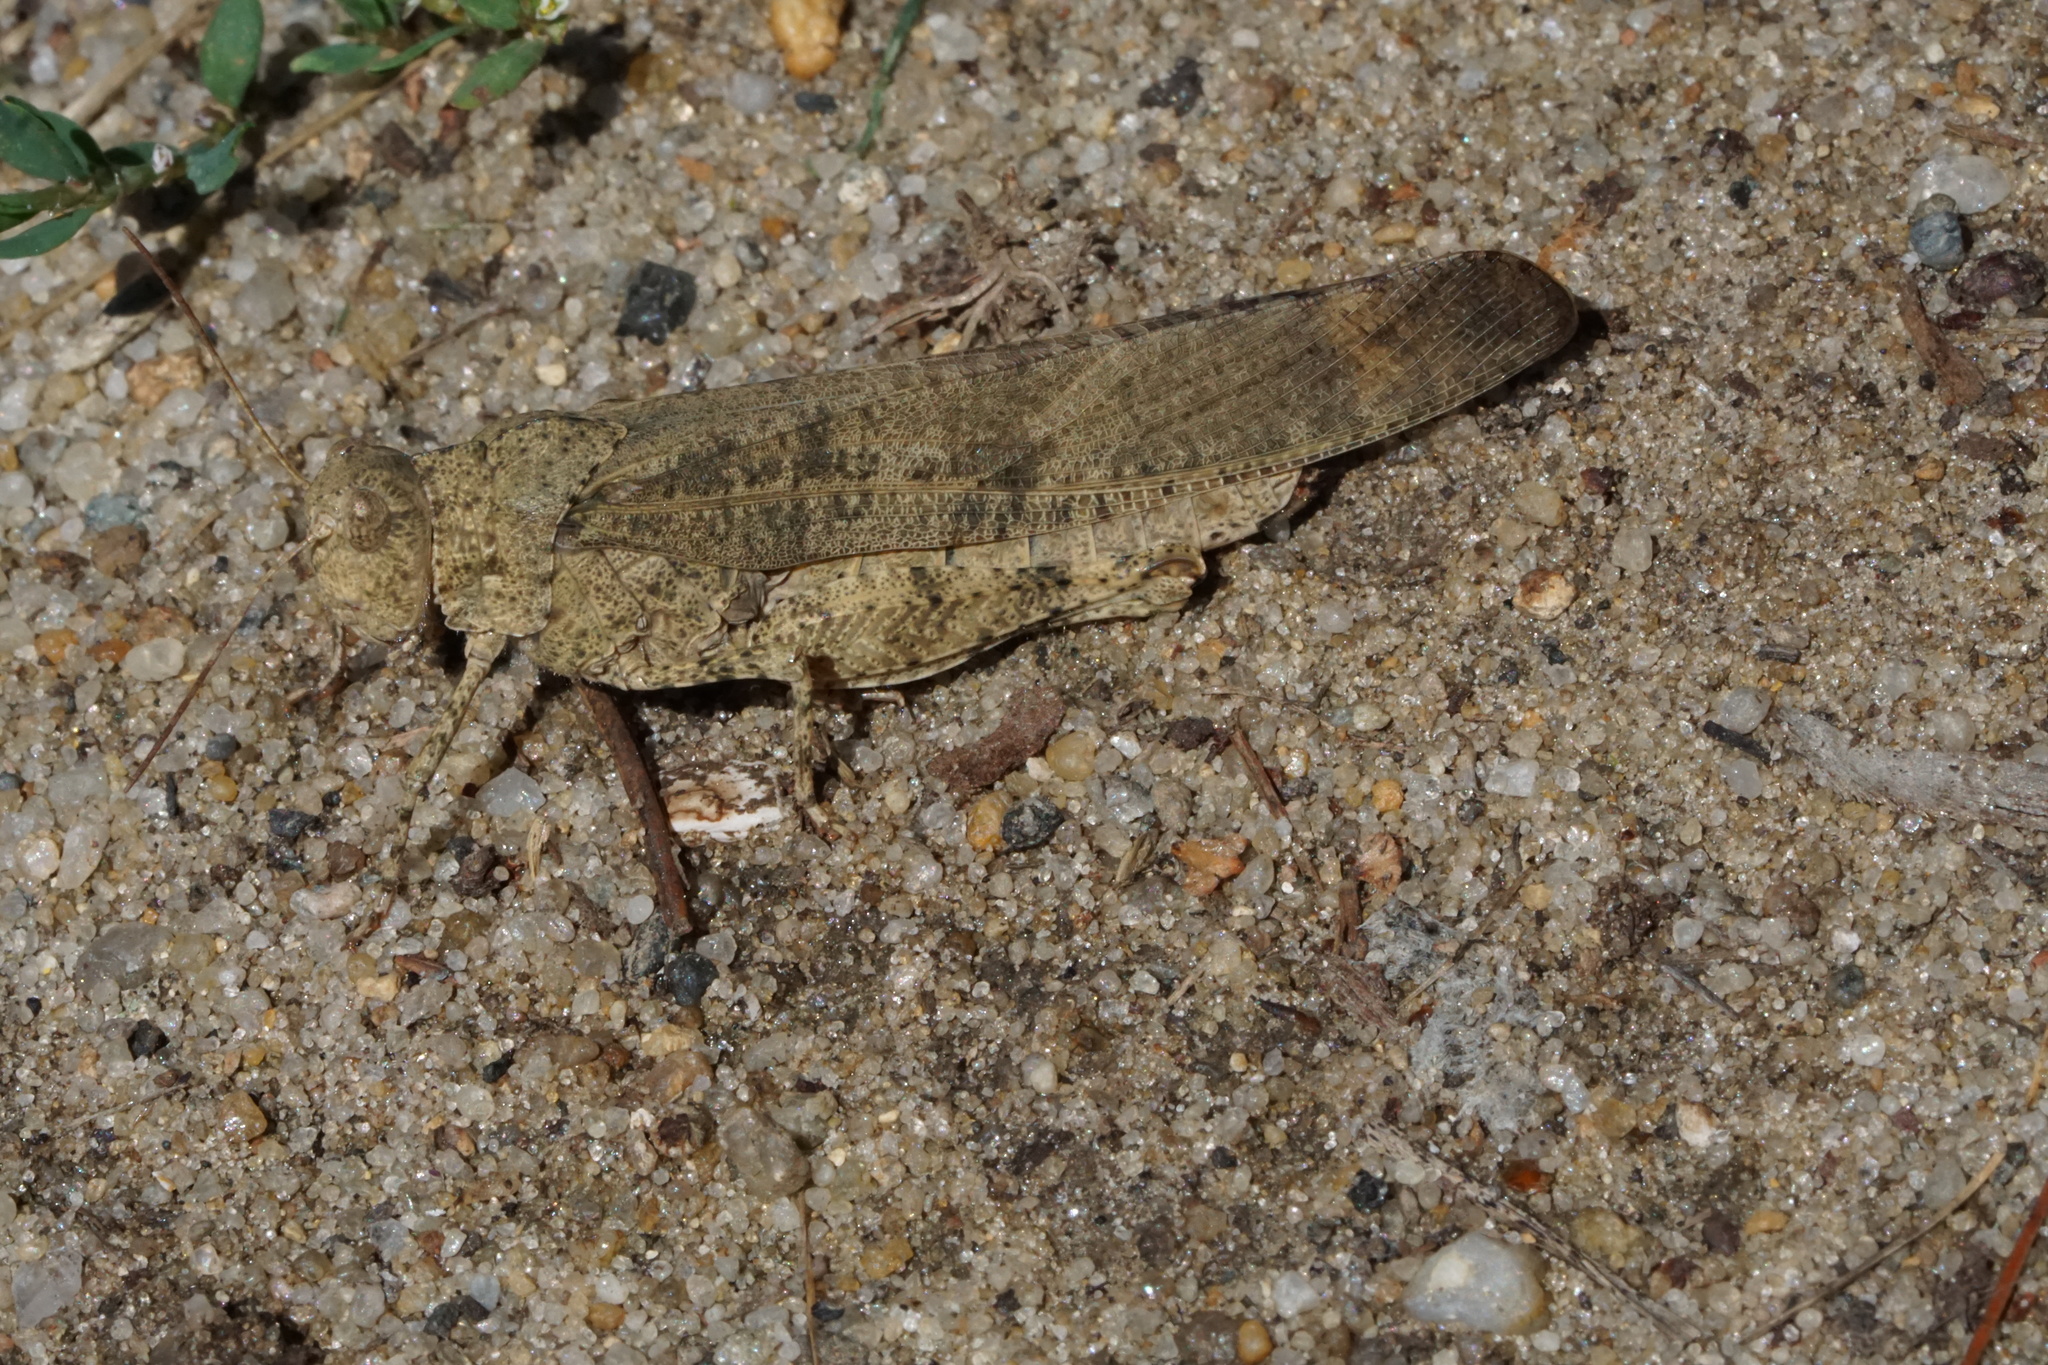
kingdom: Animalia
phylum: Arthropoda
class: Insecta
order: Orthoptera
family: Acrididae
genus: Dissosteira
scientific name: Dissosteira carolina
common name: Carolina grasshopper
